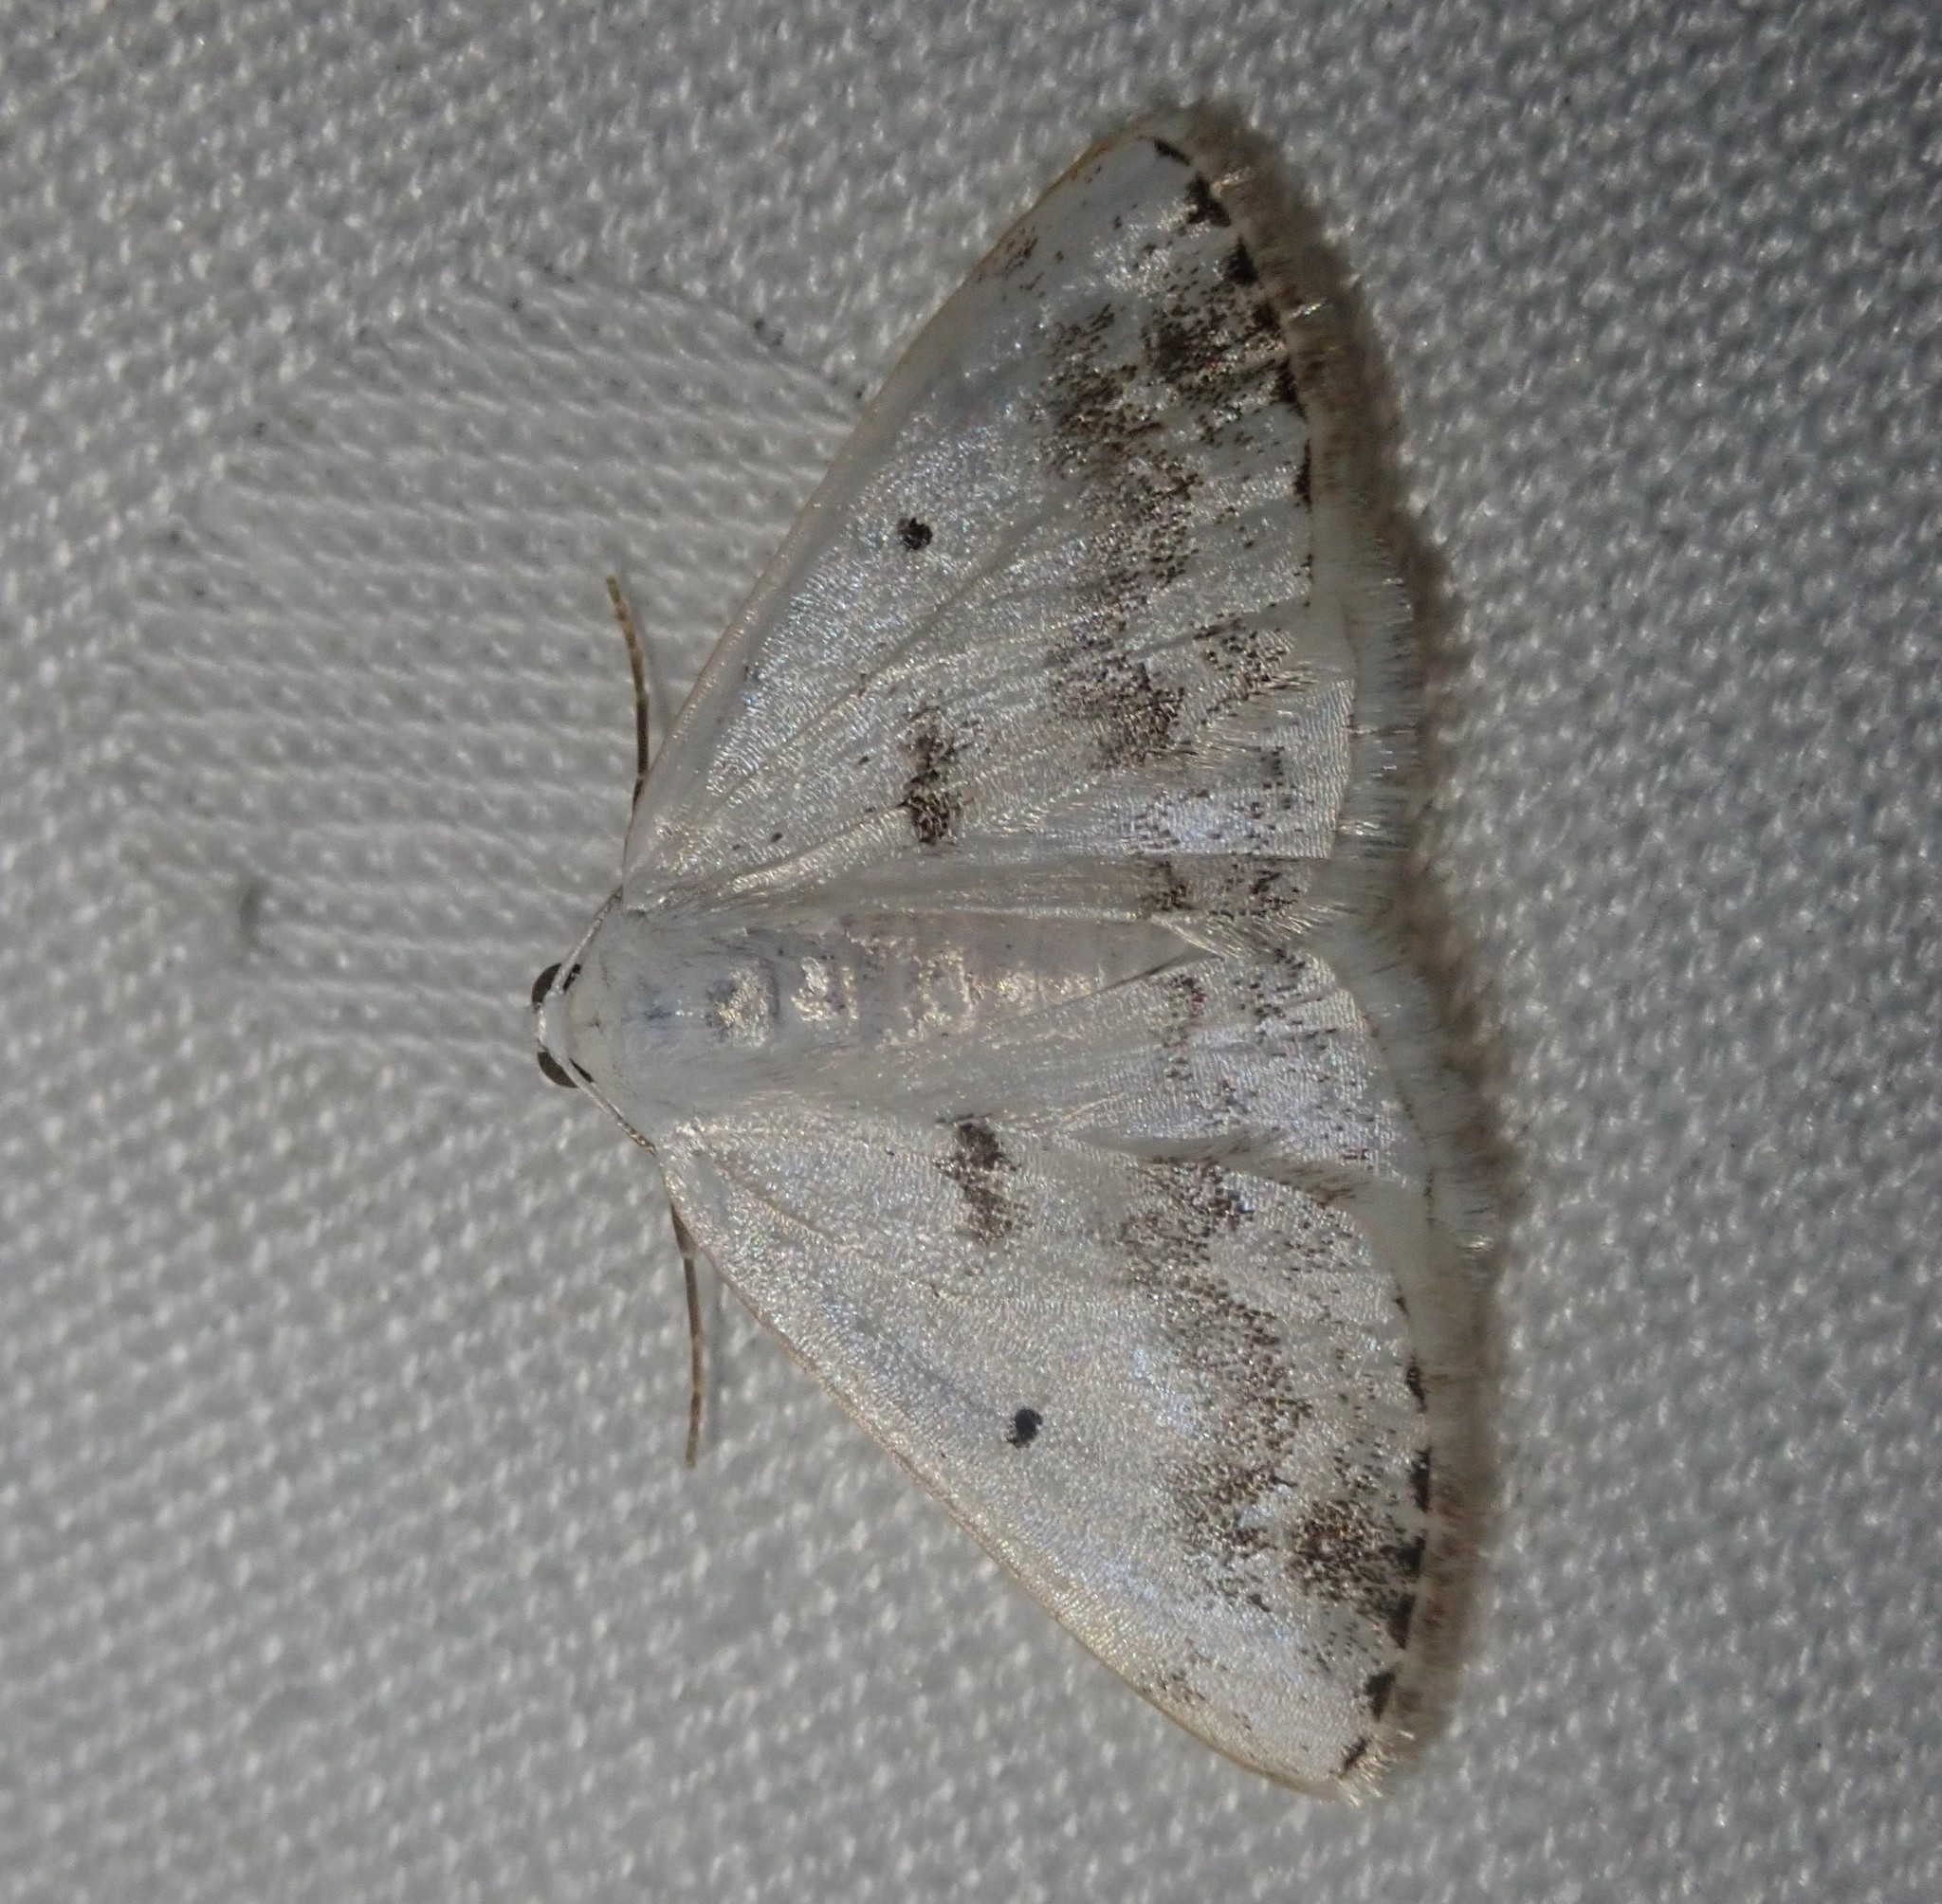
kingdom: Animalia
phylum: Arthropoda
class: Insecta
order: Lepidoptera
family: Geometridae
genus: Lomographa
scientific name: Lomographa temerata
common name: Clouded silver
